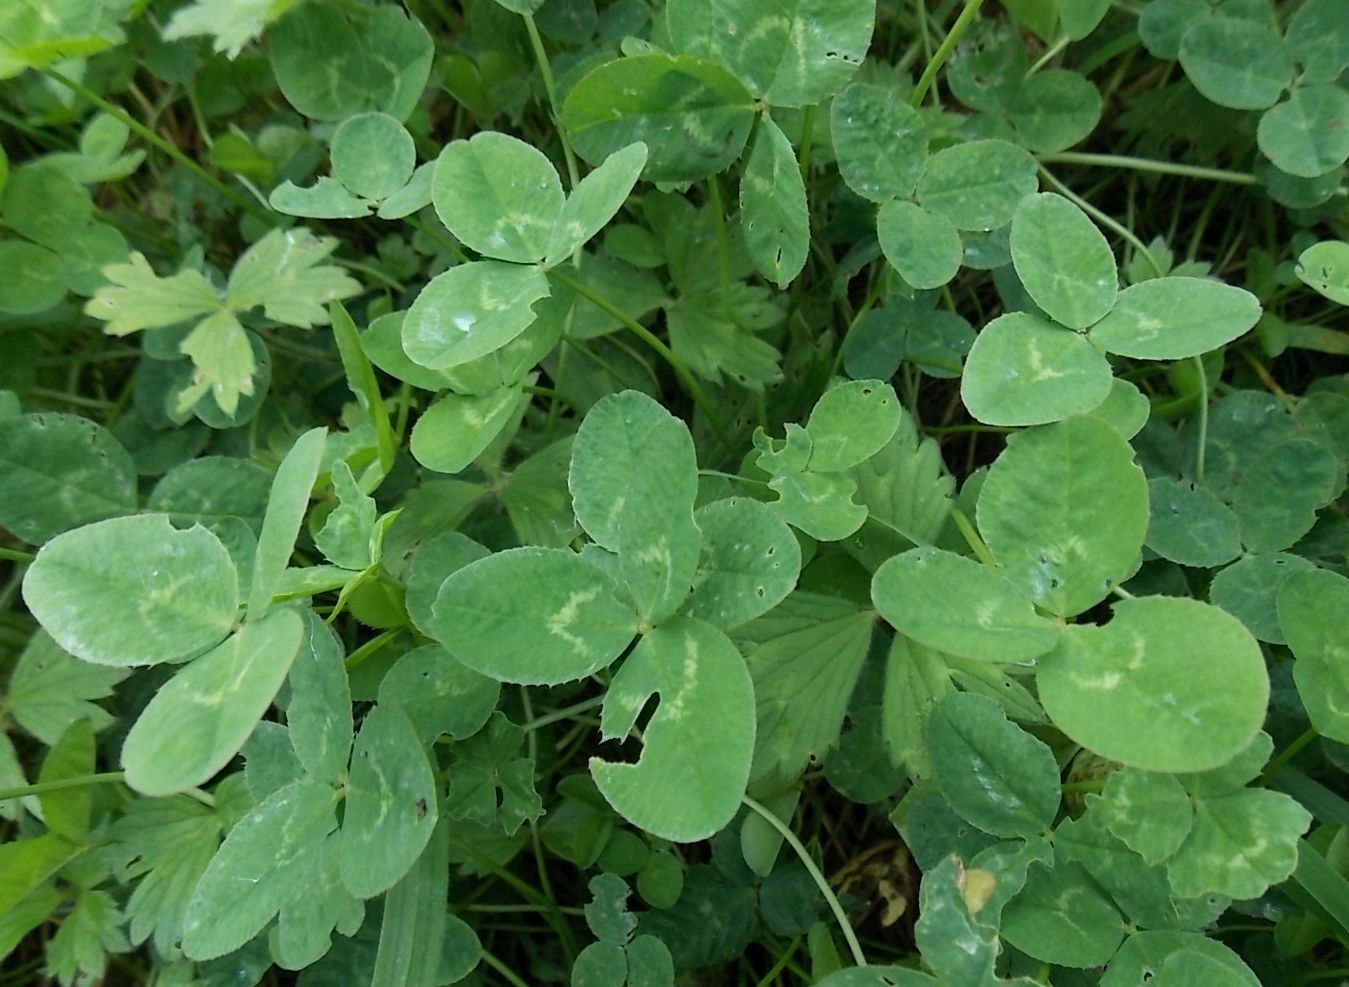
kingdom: Plantae
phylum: Tracheophyta
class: Magnoliopsida
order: Fabales
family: Fabaceae
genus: Trifolium
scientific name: Trifolium repens
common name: White clover
